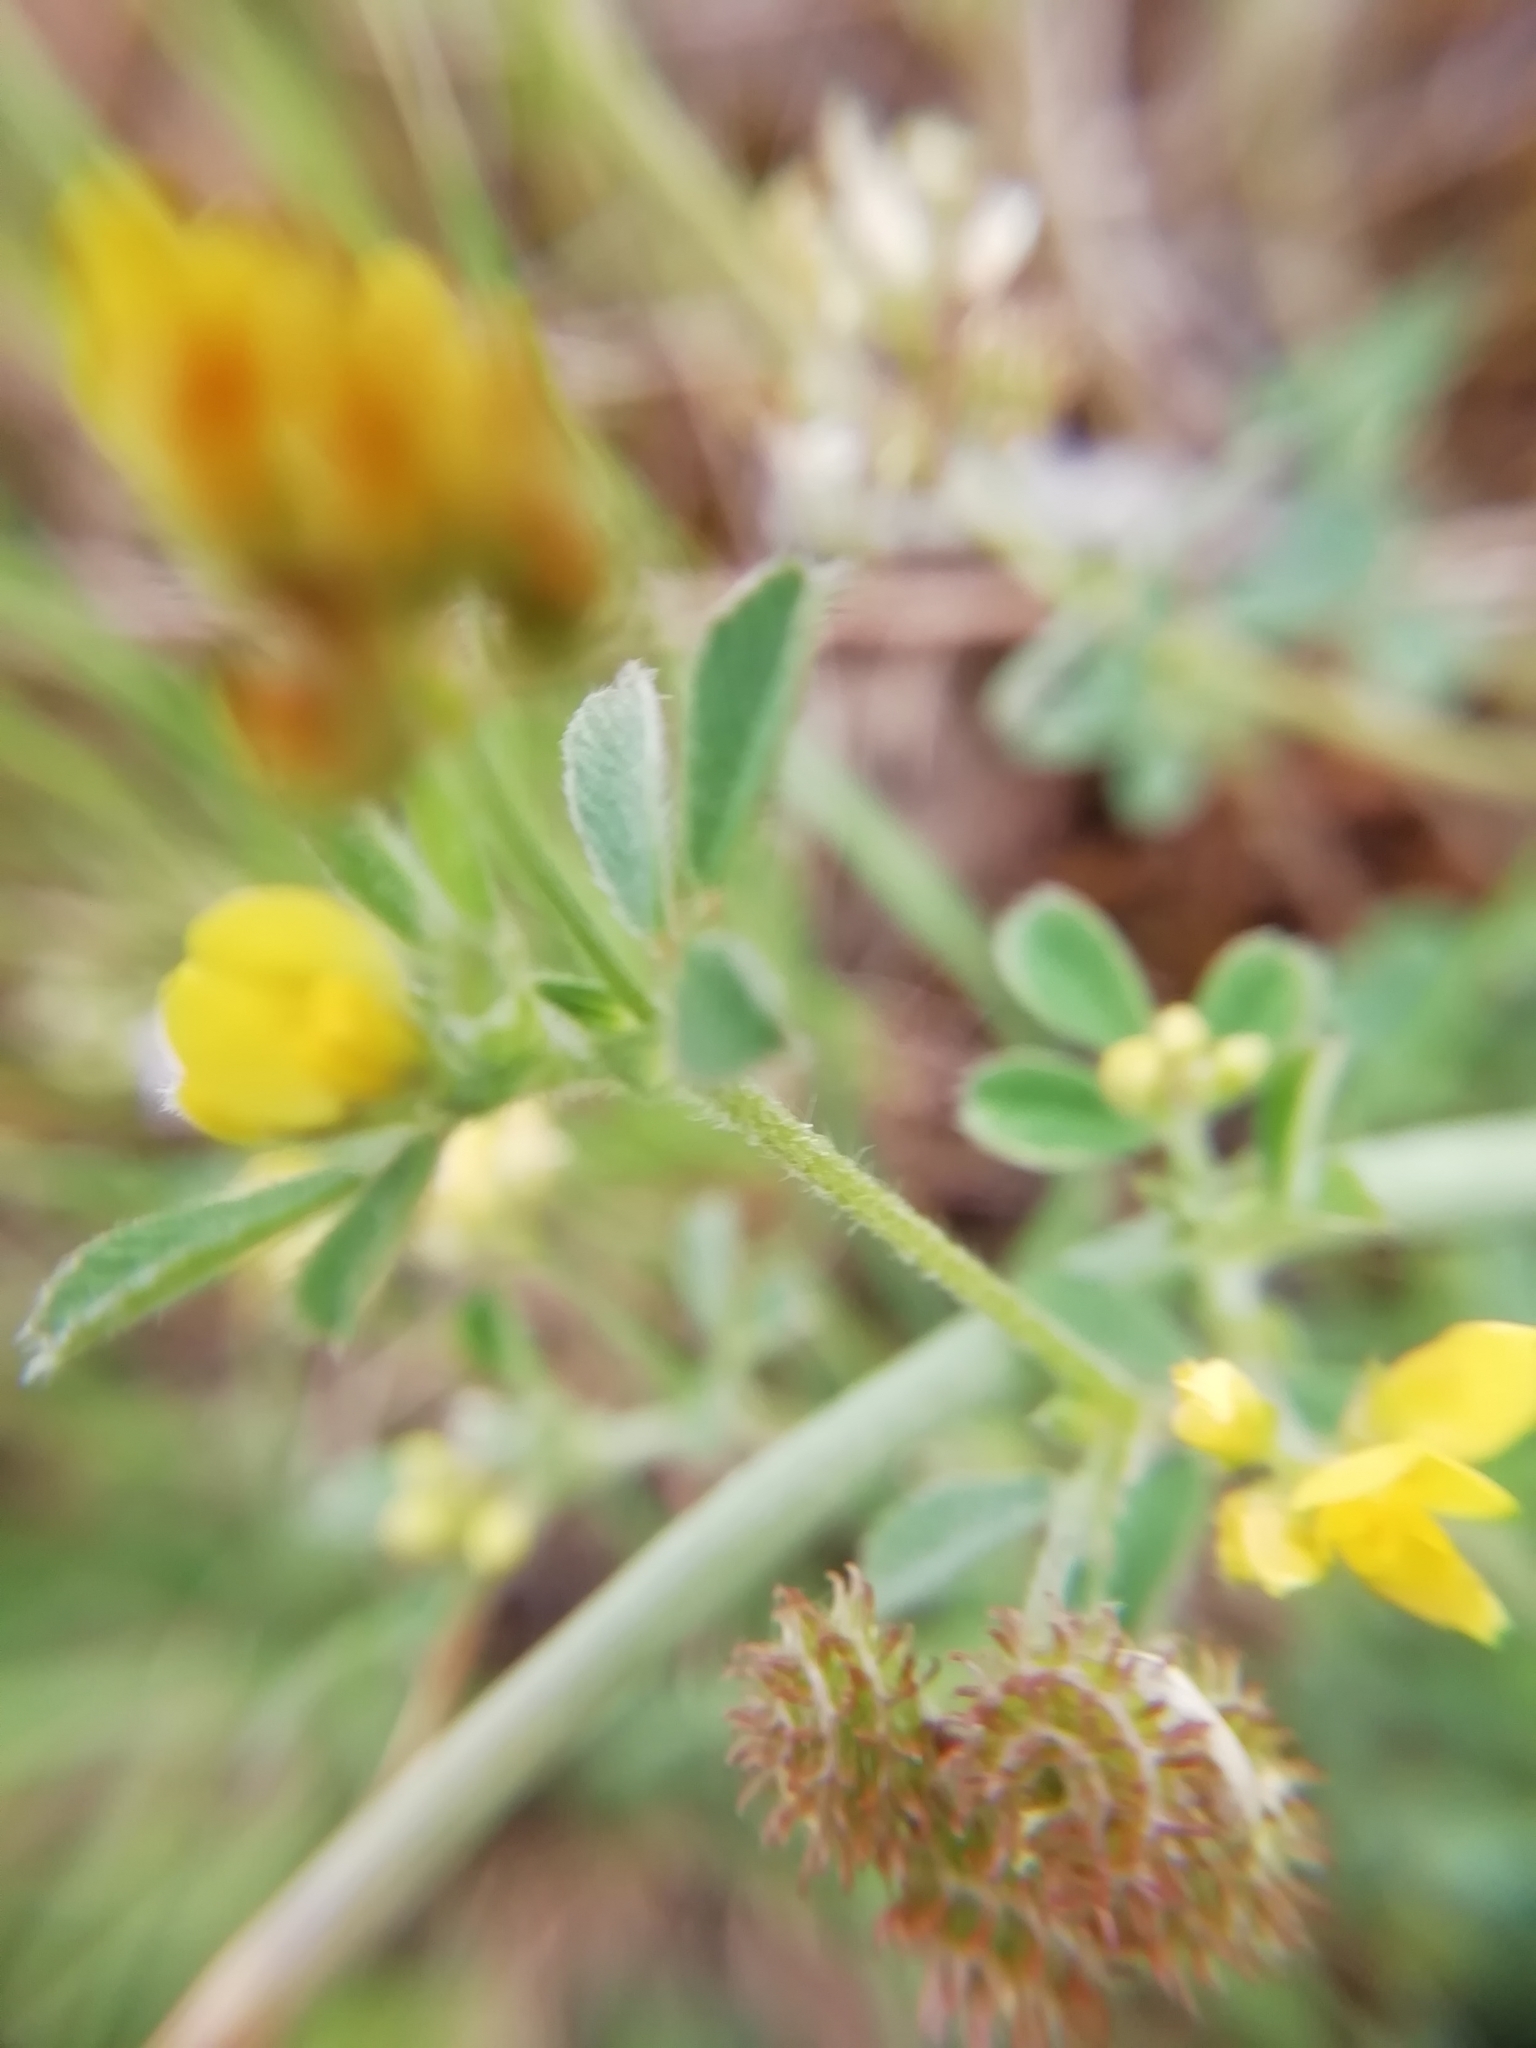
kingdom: Plantae
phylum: Tracheophyta
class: Magnoliopsida
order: Fabales
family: Fabaceae
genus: Medicago
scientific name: Medicago minima
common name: Little bur-clover
